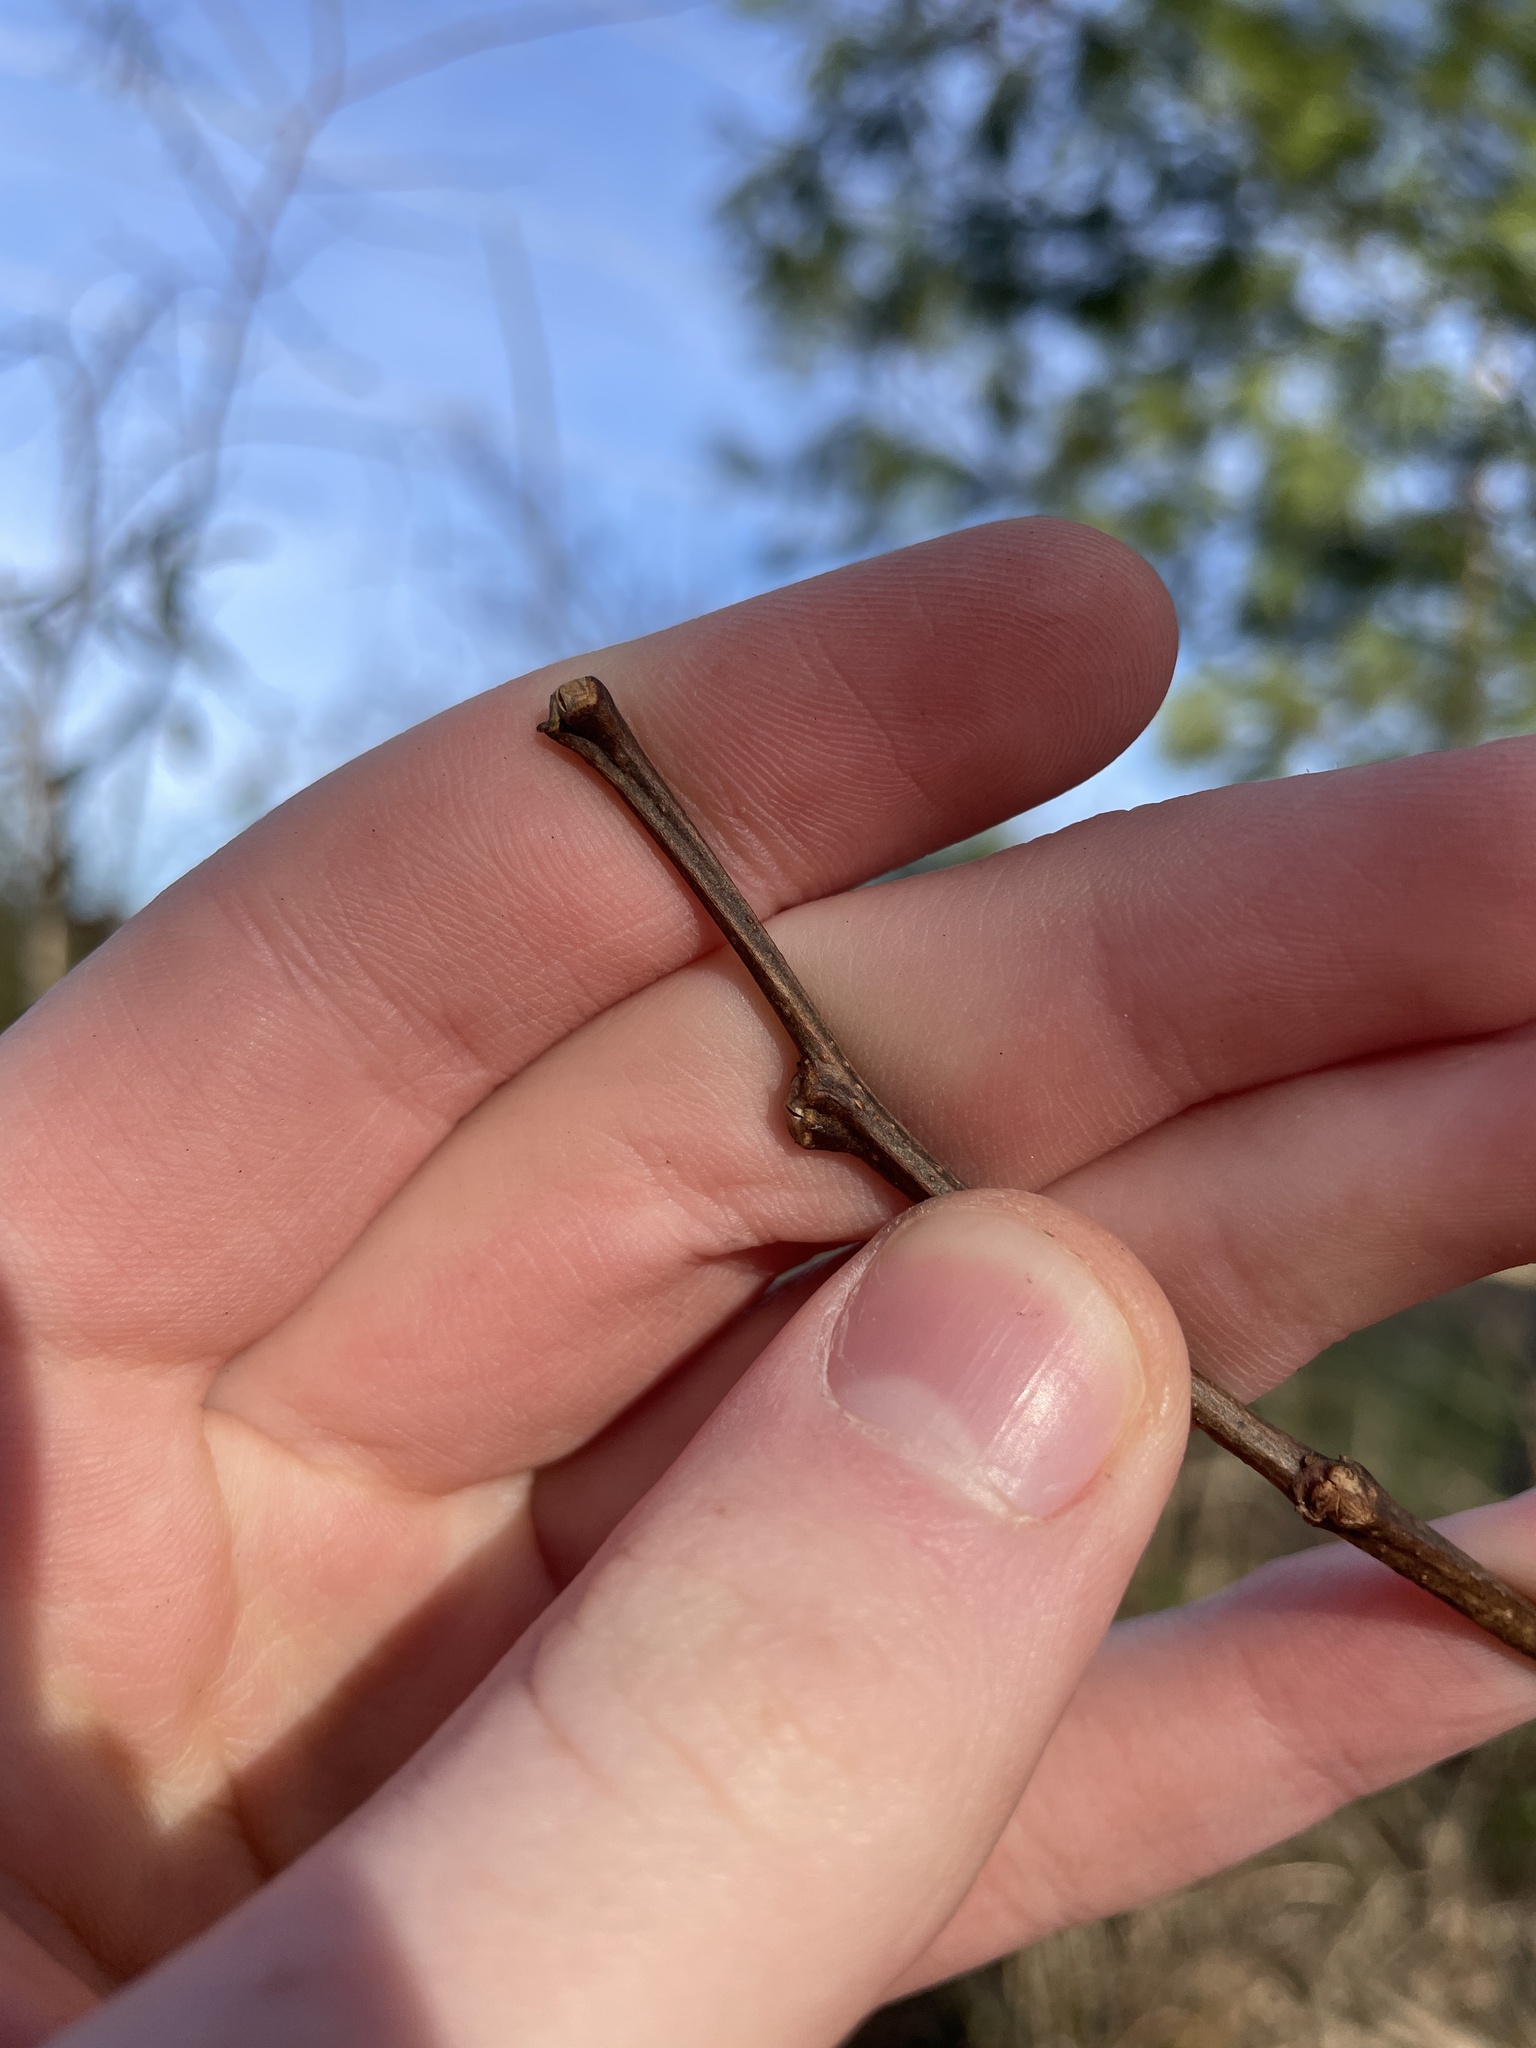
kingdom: Plantae
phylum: Tracheophyta
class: Magnoliopsida
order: Fabales
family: Fabaceae
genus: Robinia
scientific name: Robinia pseudoacacia
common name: Black locust
